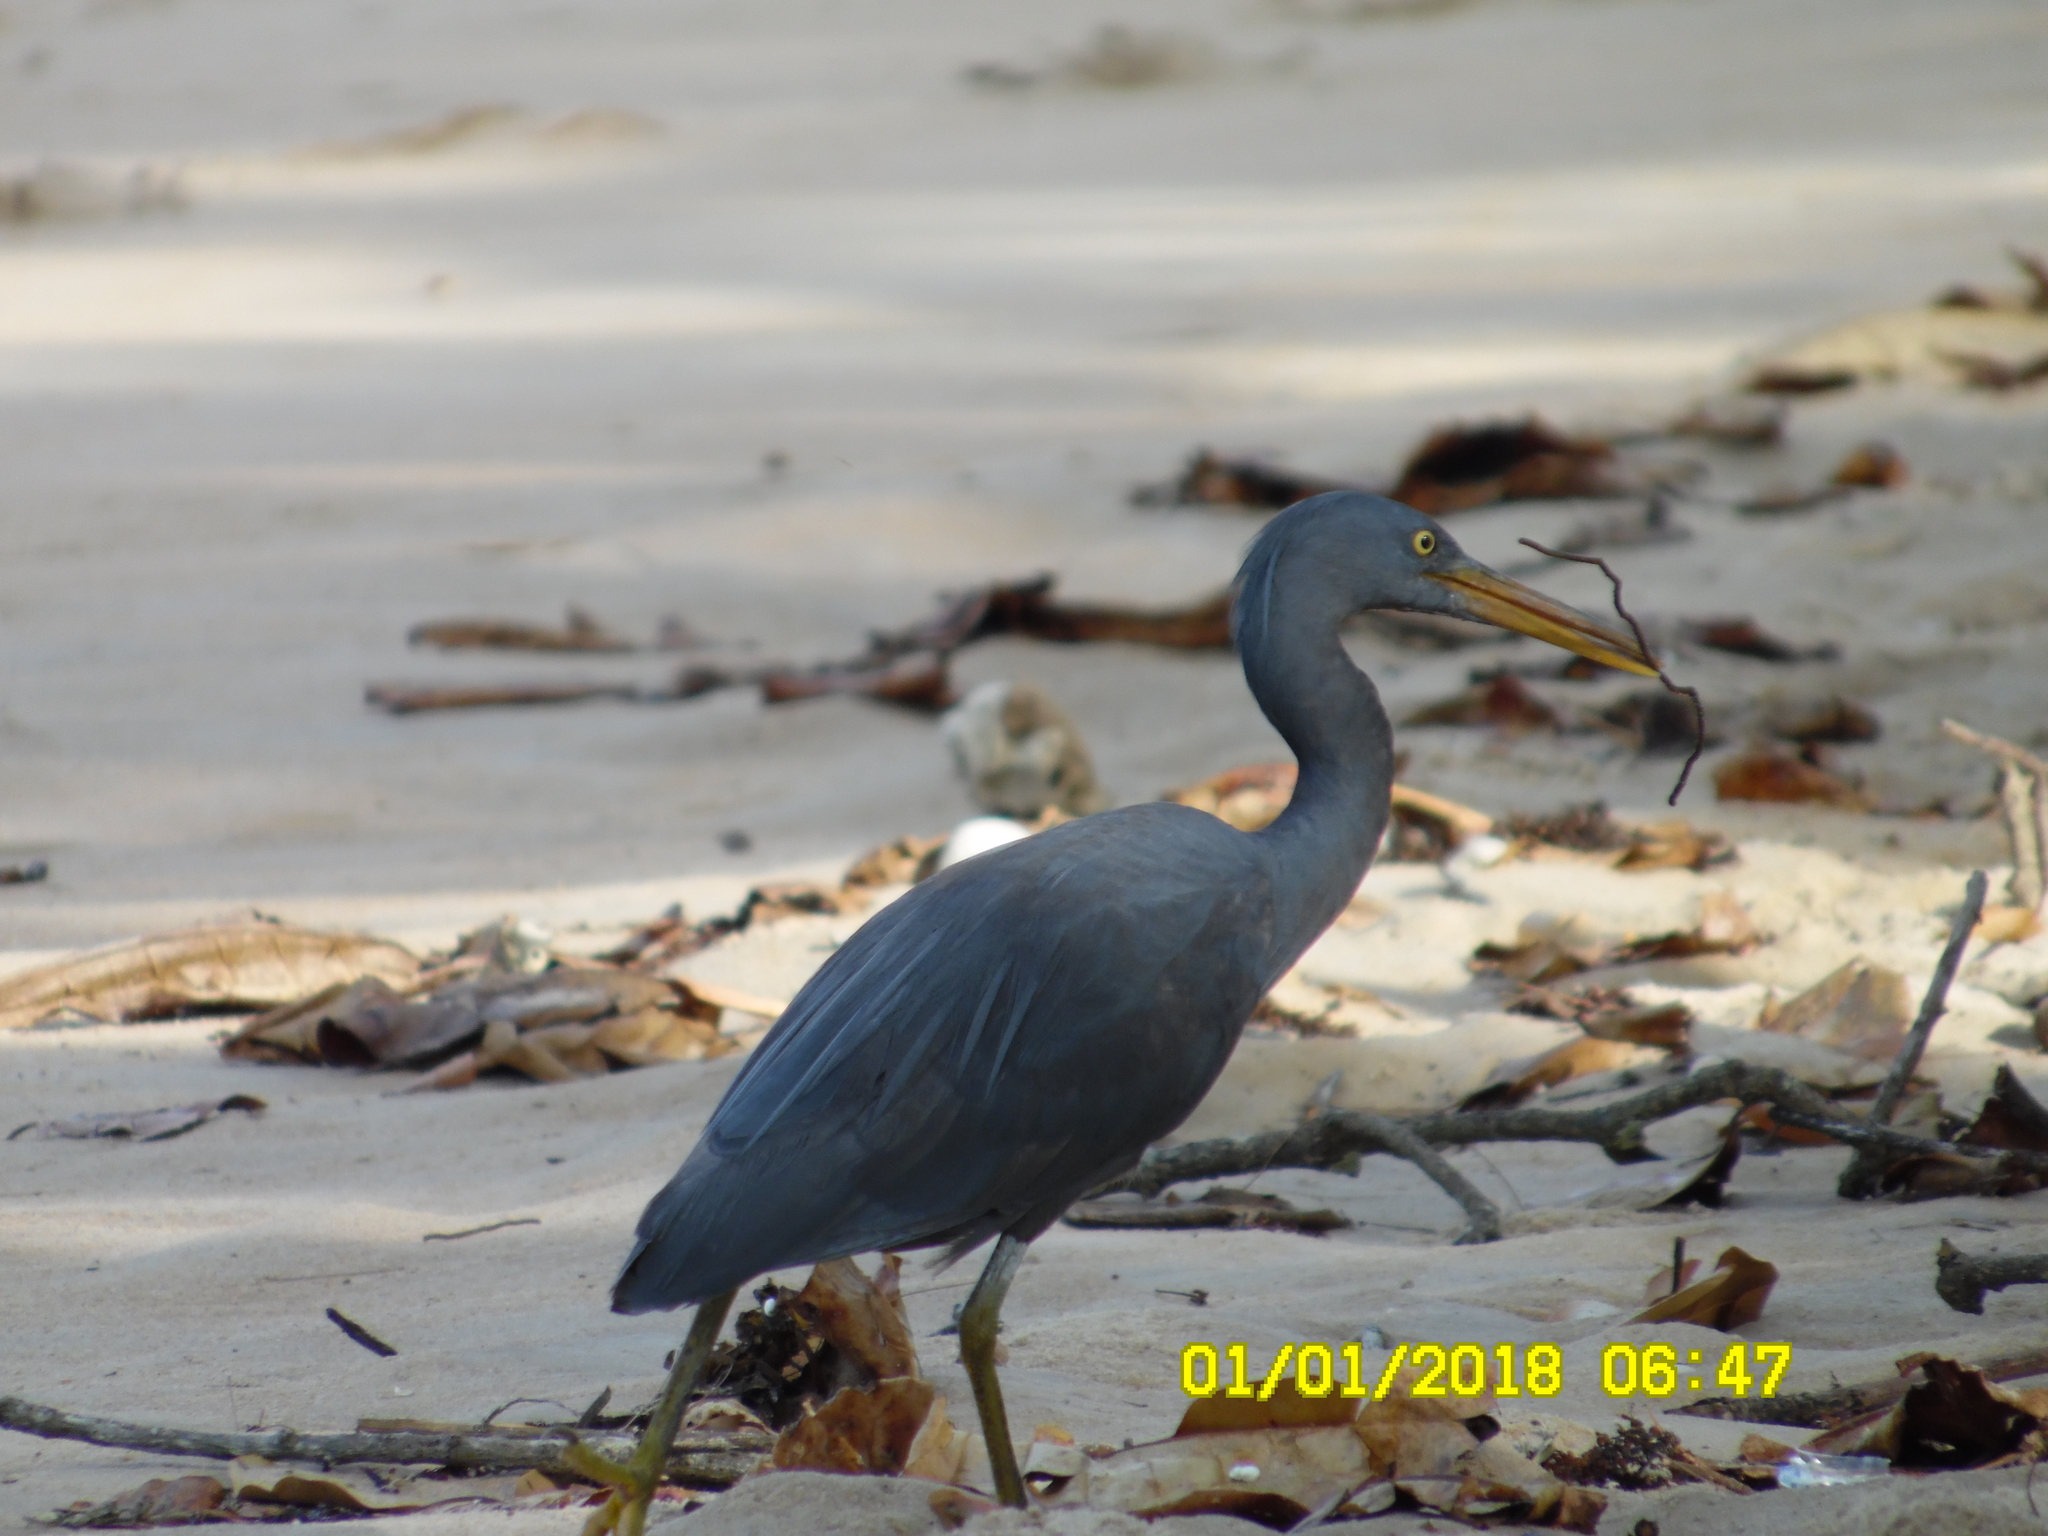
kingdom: Animalia
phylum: Chordata
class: Aves
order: Pelecaniformes
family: Ardeidae
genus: Egretta
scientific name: Egretta sacra
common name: Pacific reef heron
